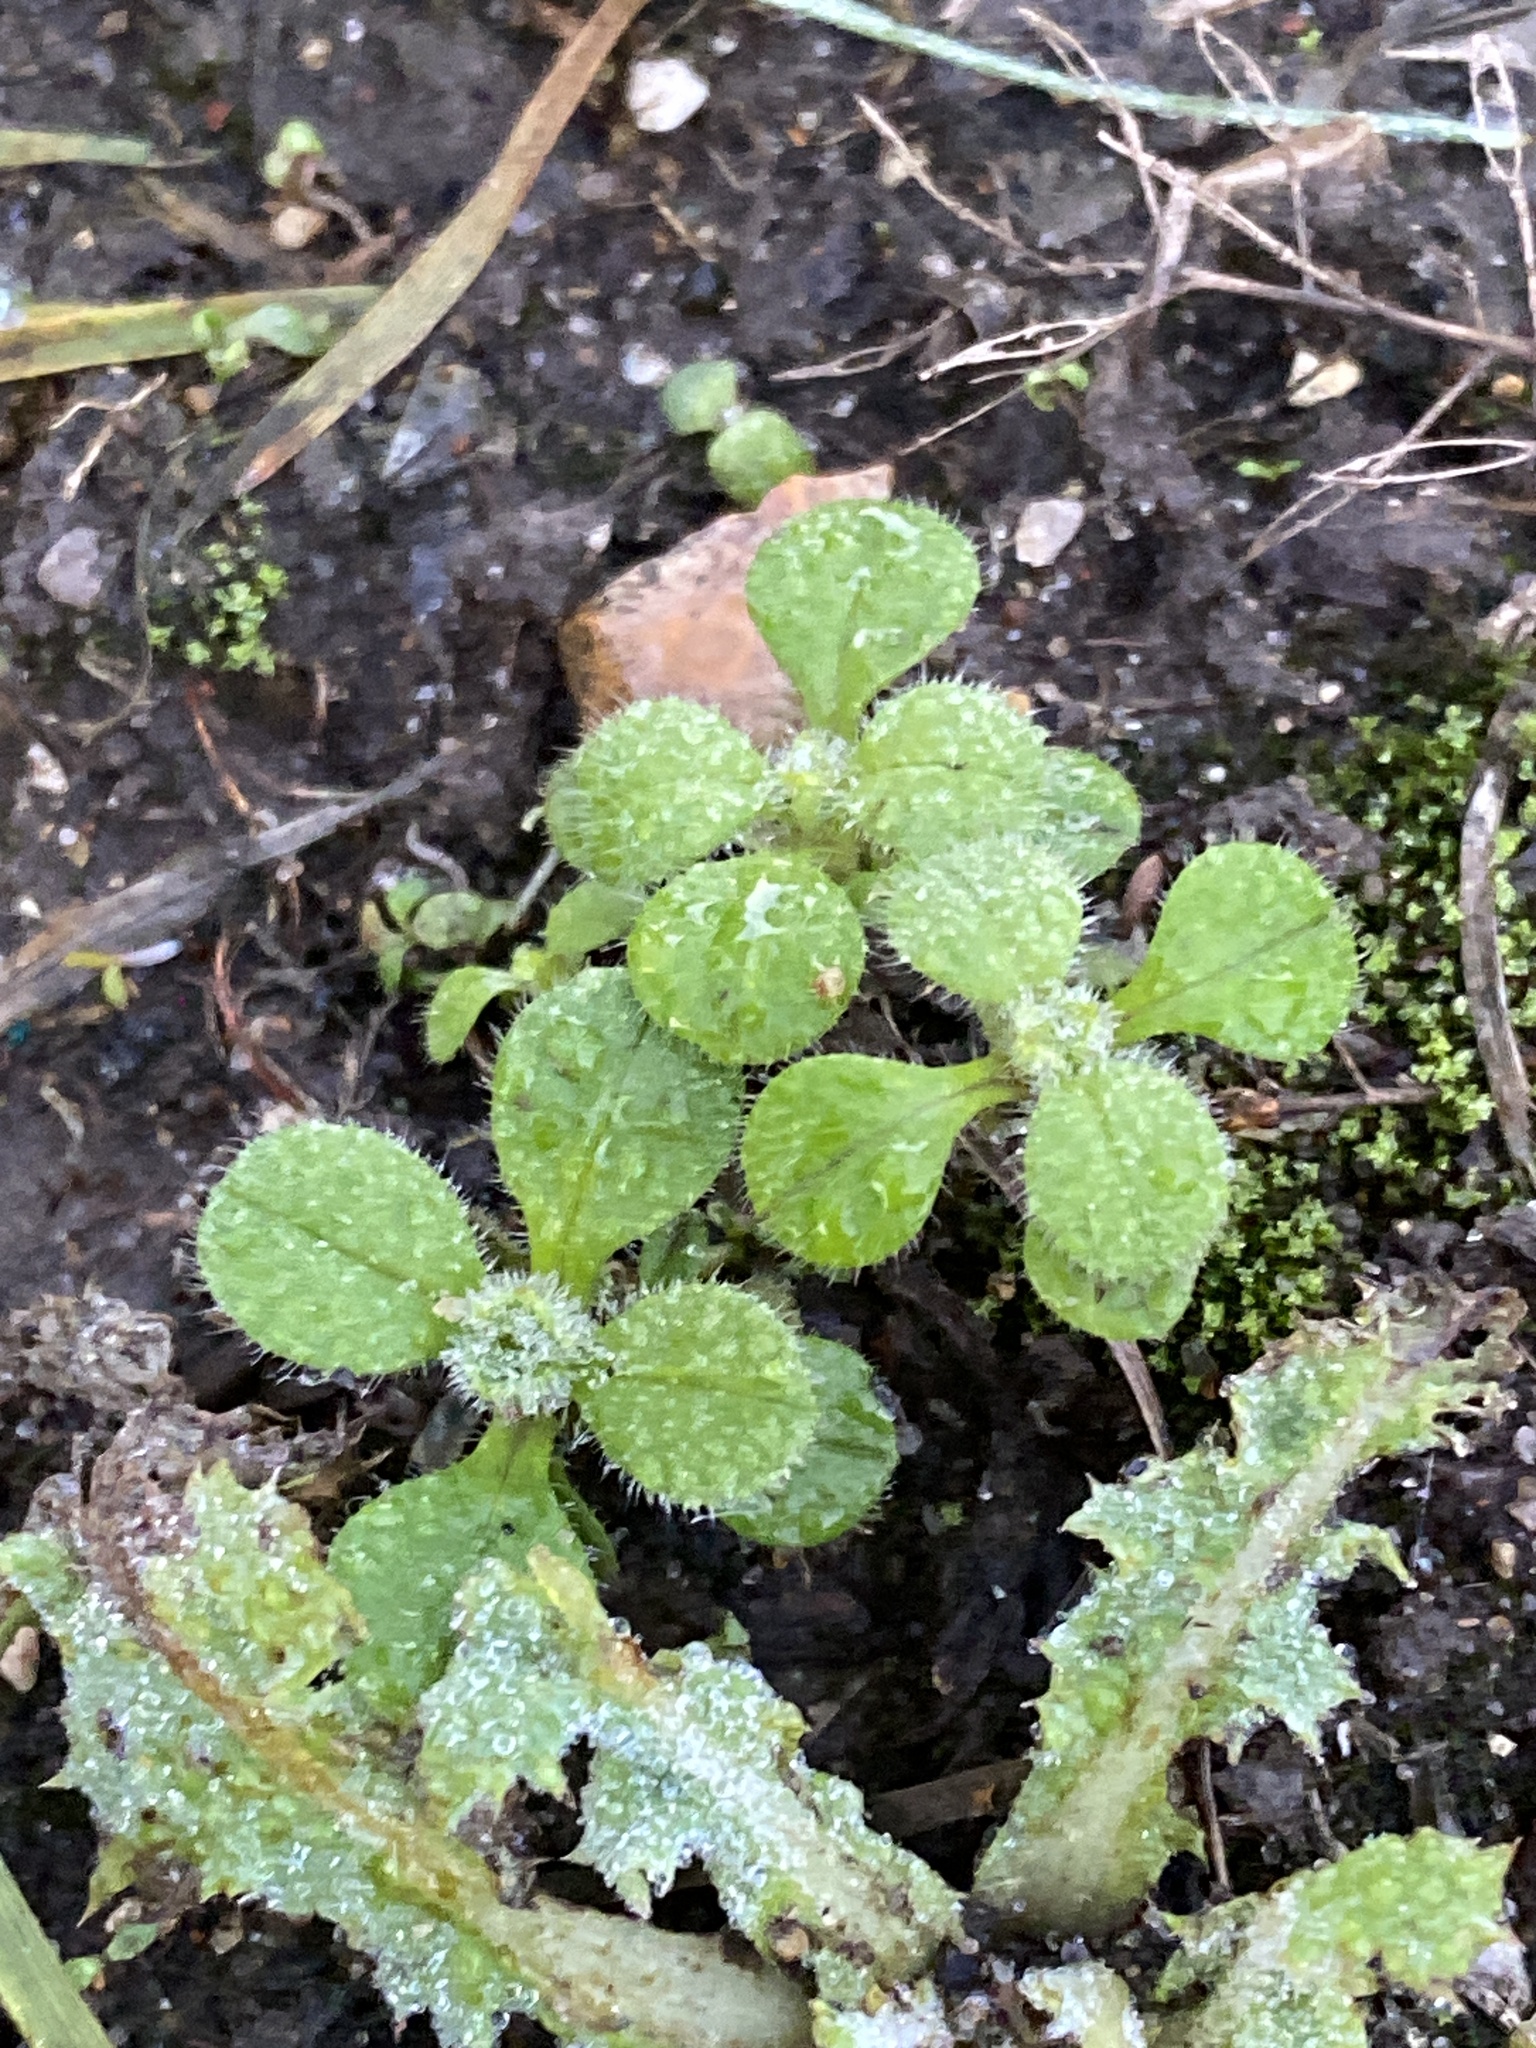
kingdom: Plantae
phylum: Tracheophyta
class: Magnoliopsida
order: Caryophyllales
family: Caryophyllaceae
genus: Cerastium
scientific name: Cerastium glomeratum
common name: Sticky chickweed
